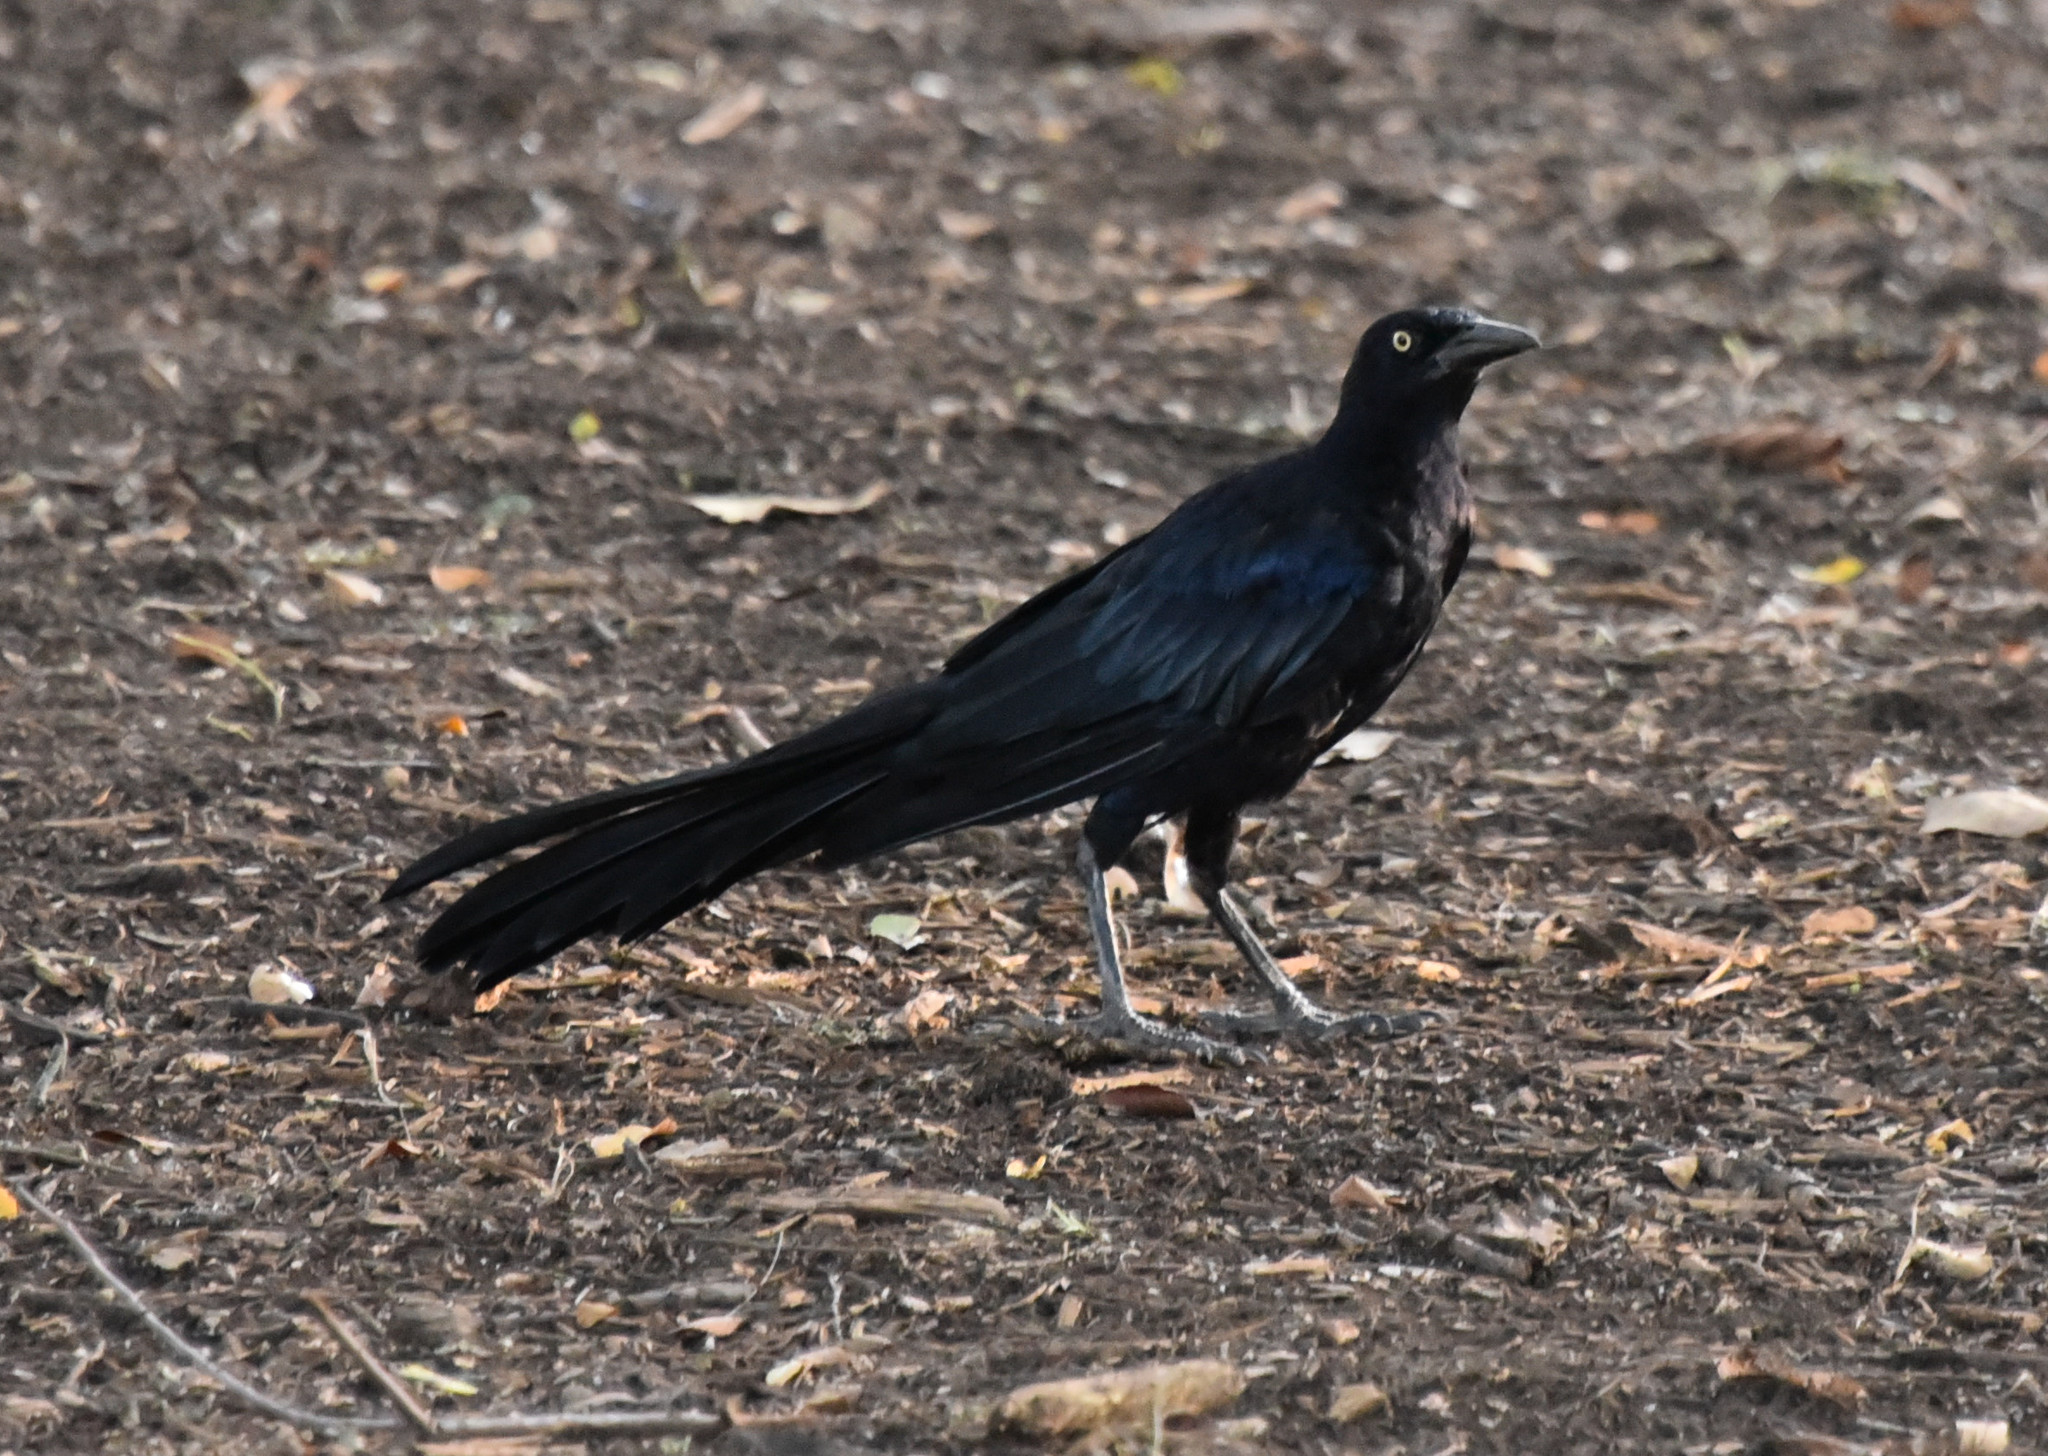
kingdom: Animalia
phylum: Chordata
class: Aves
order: Passeriformes
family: Icteridae
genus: Quiscalus
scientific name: Quiscalus mexicanus
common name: Great-tailed grackle
